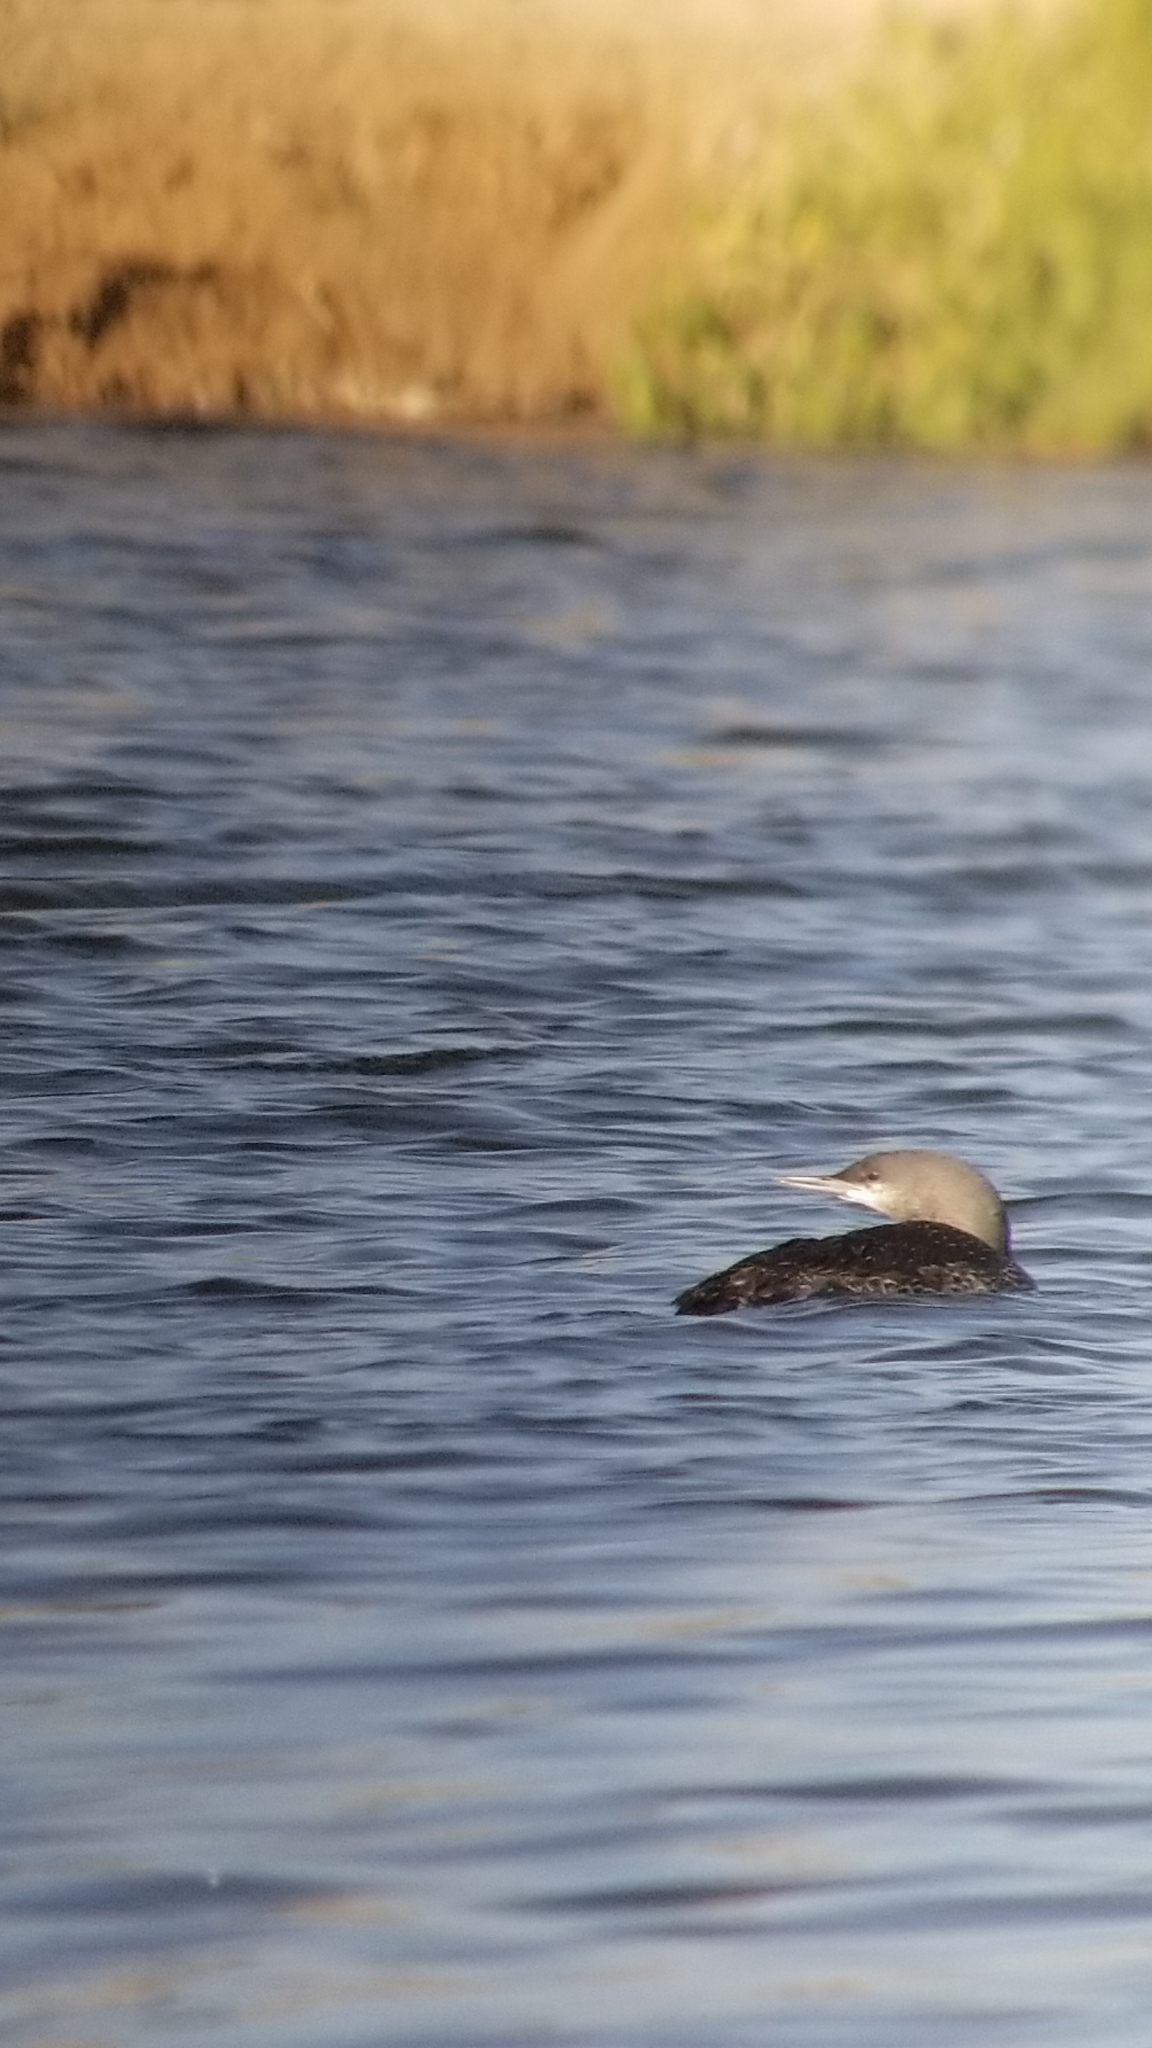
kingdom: Animalia
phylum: Chordata
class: Aves
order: Gaviiformes
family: Gaviidae
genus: Gavia
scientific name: Gavia stellata
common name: Red-throated loon
